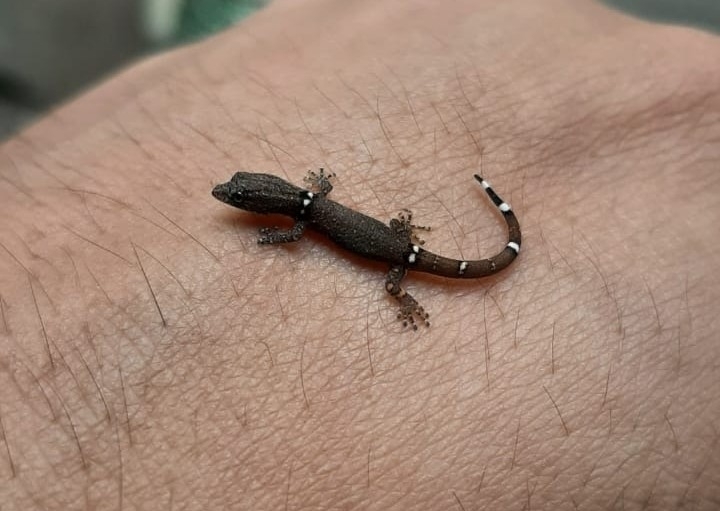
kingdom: Animalia
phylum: Chordata
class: Squamata
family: Sphaerodactylidae
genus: Sphaerodactylus
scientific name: Sphaerodactylus glaucus
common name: Central american collared geckolet
